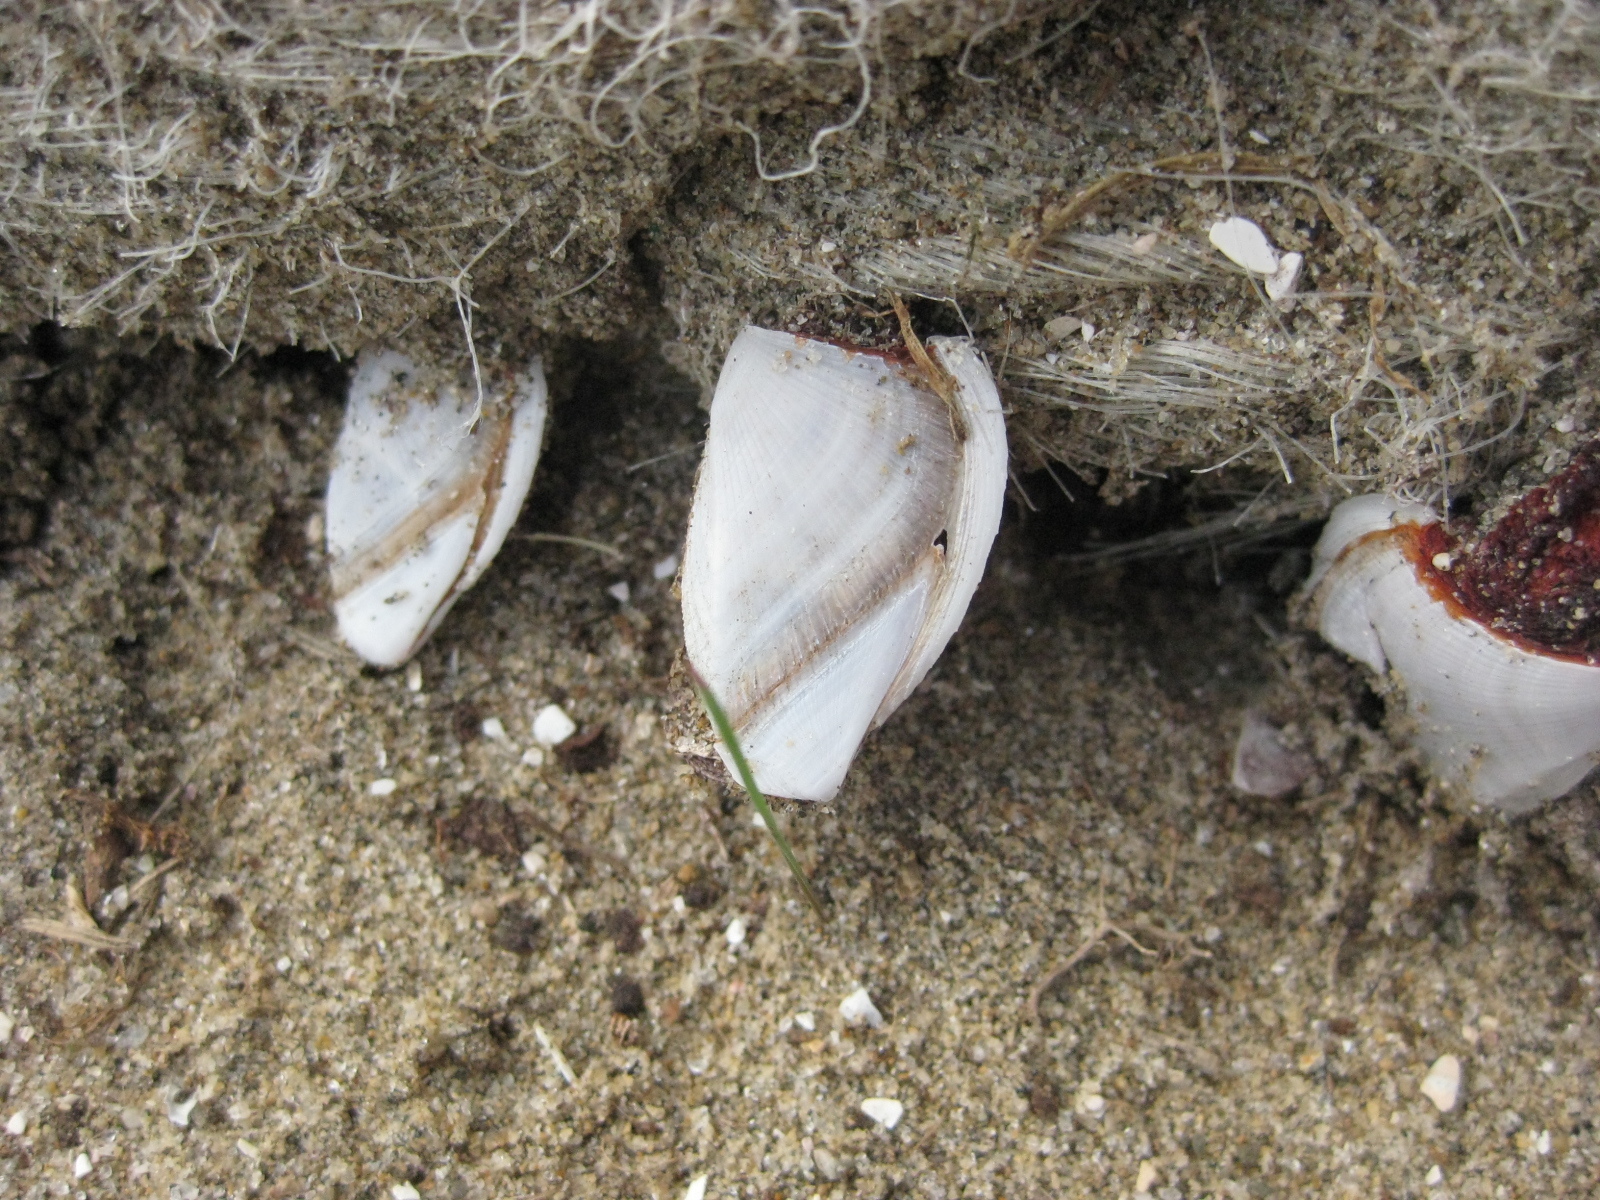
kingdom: Animalia
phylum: Arthropoda
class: Maxillopoda
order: Pedunculata
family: Lepadidae
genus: Lepas
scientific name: Lepas anatifera
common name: Common goose barnacle
